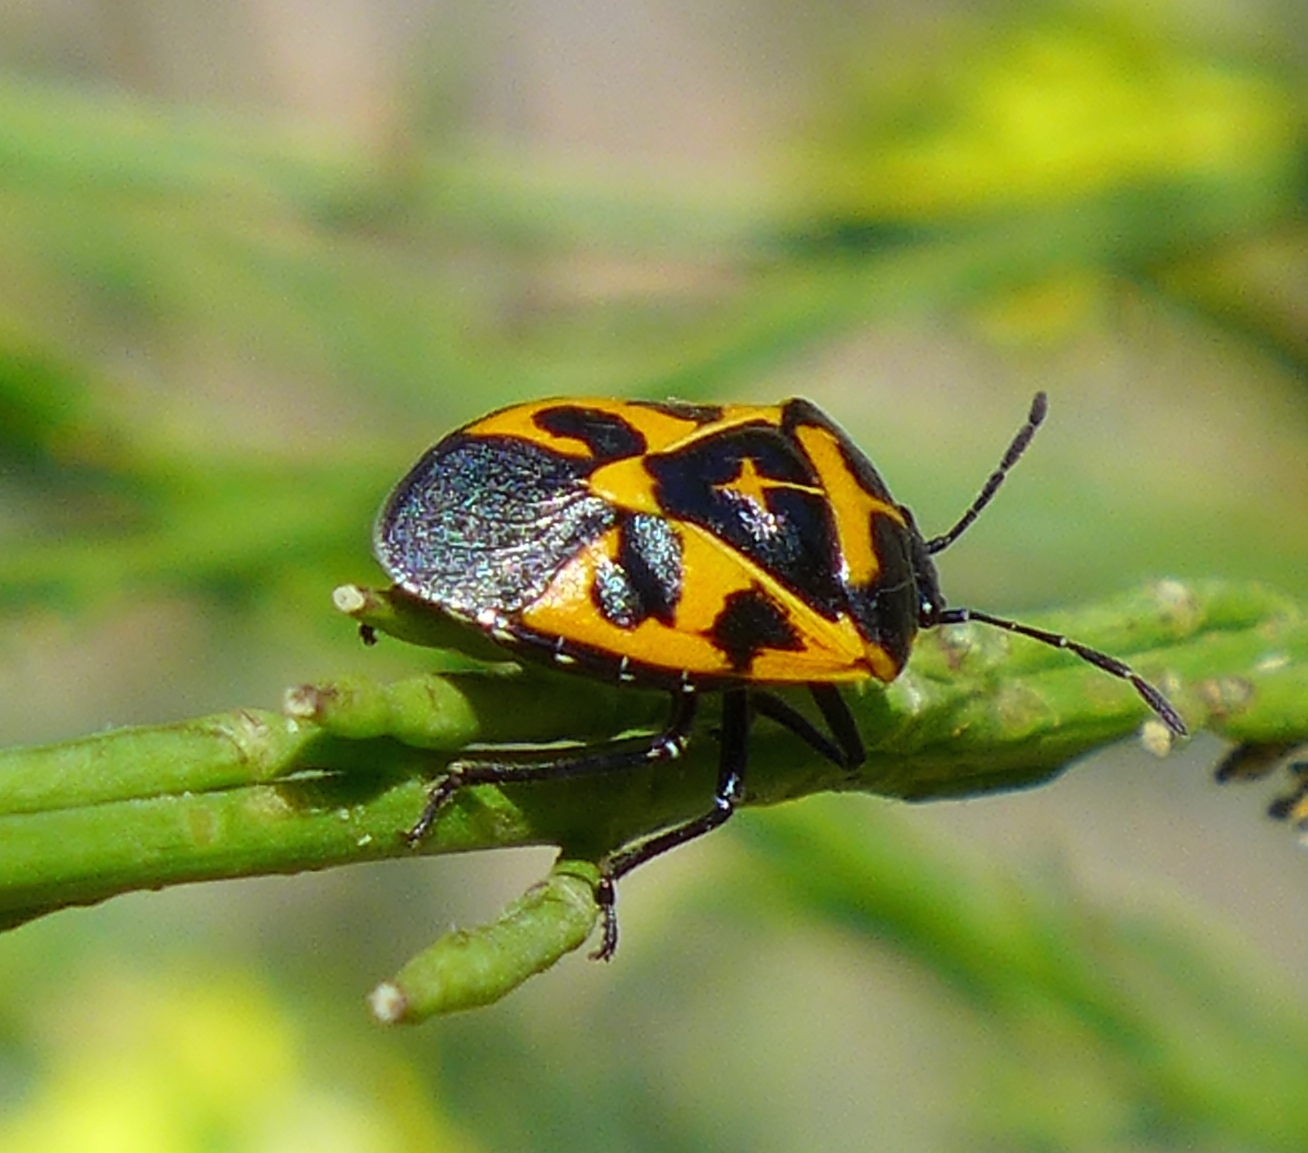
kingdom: Animalia
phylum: Arthropoda
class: Insecta
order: Hemiptera
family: Pentatomidae
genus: Murgantia
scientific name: Murgantia histrionica
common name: Harlequin bug
